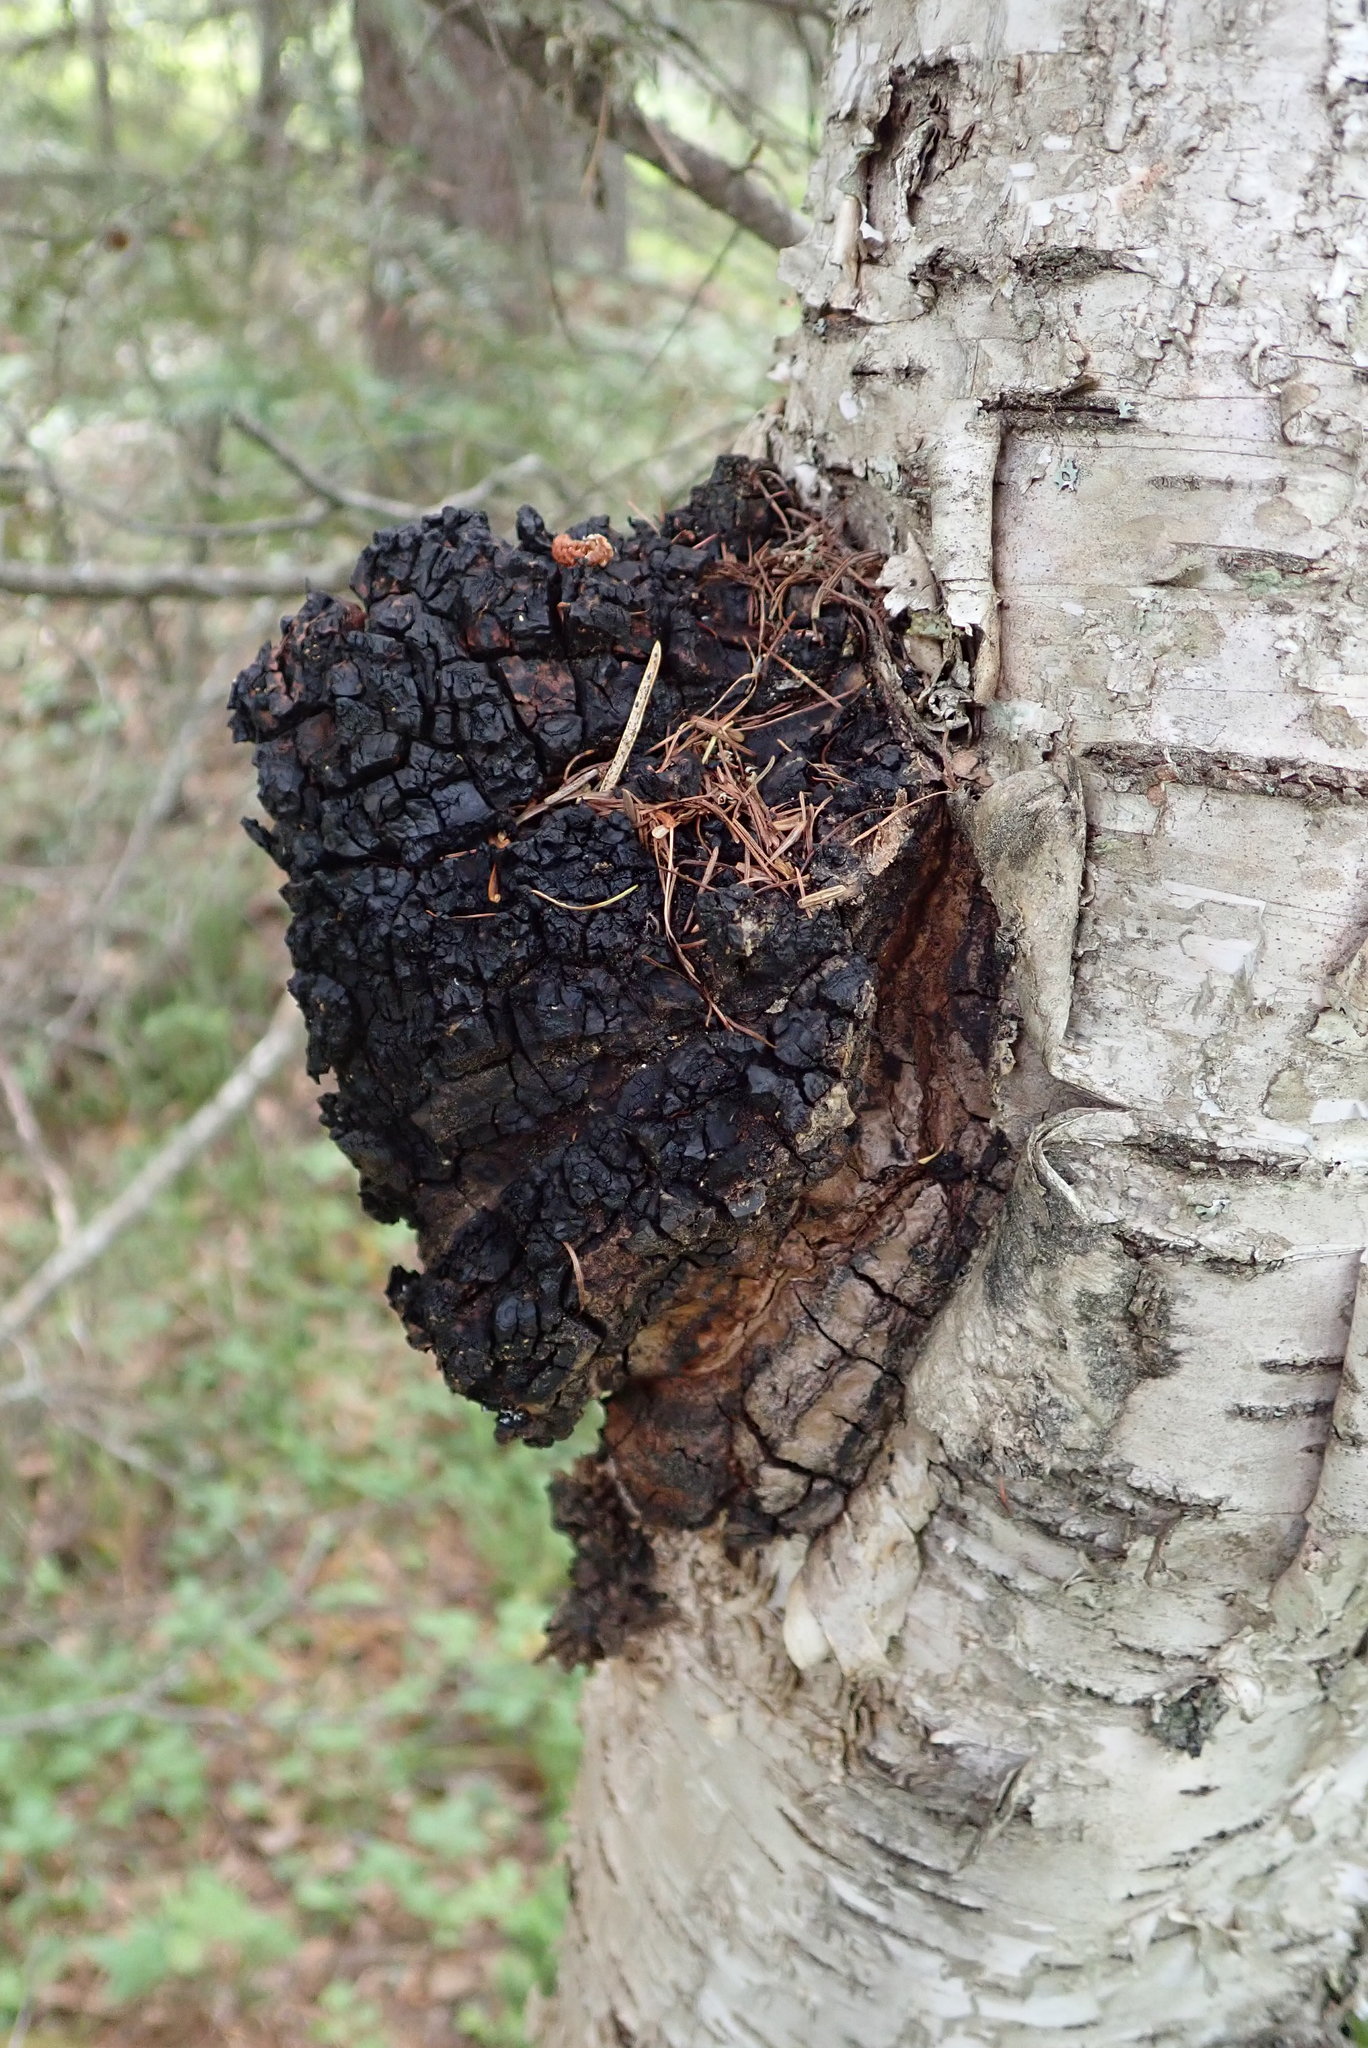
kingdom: Fungi
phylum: Basidiomycota
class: Agaricomycetes
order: Hymenochaetales
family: Hymenochaetaceae
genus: Inonotus
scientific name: Inonotus obliquus
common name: Chaga
